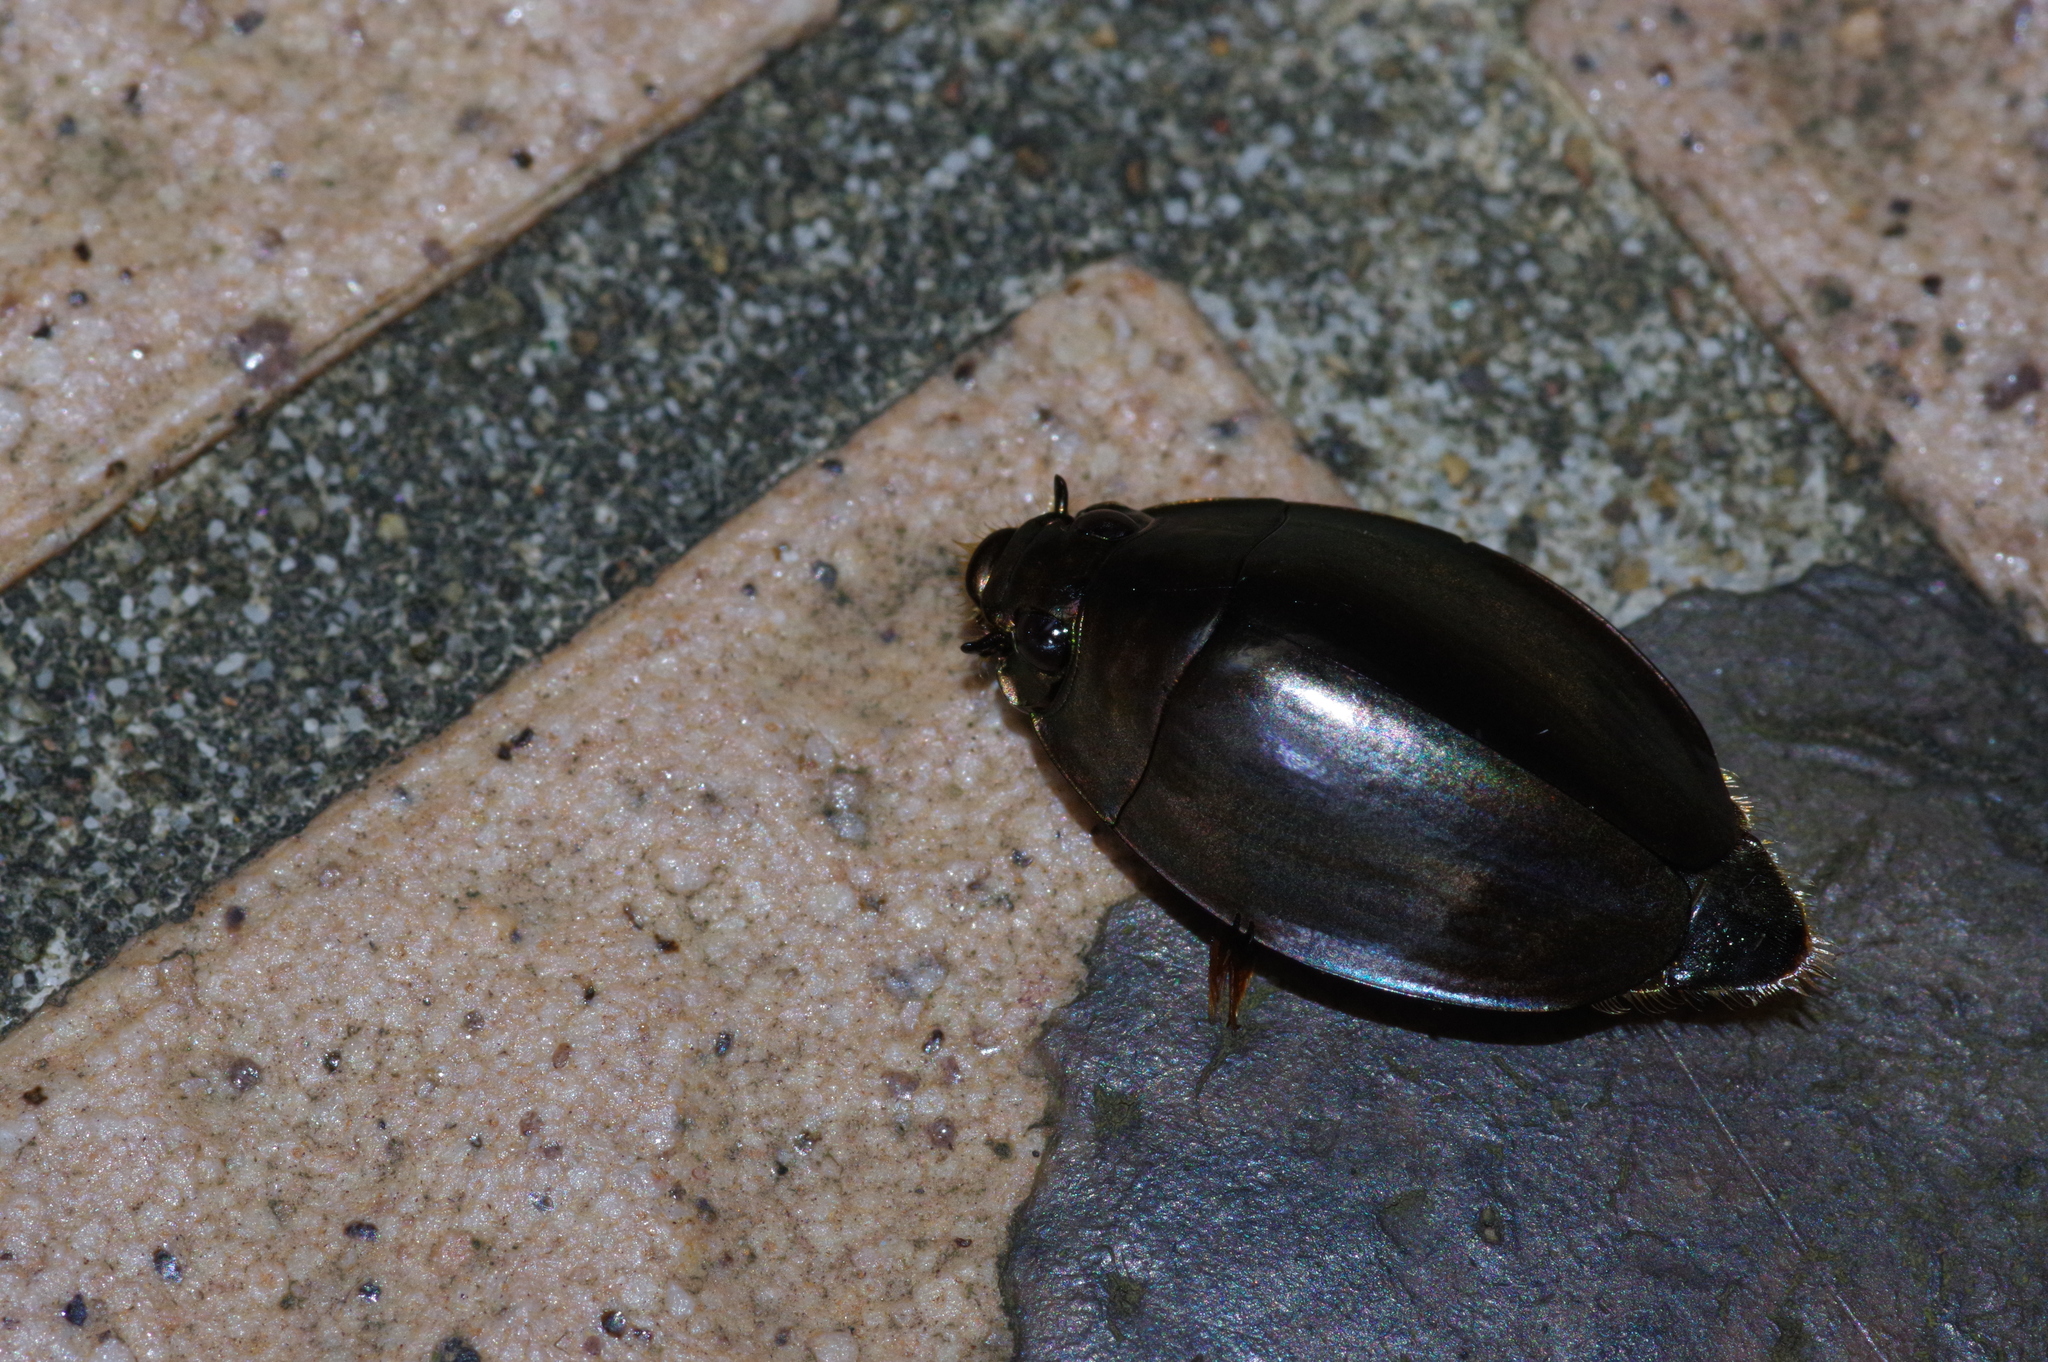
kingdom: Animalia
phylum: Arthropoda
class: Insecta
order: Coleoptera
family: Gyrinidae
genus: Dineutus
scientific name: Dineutus mellyi
